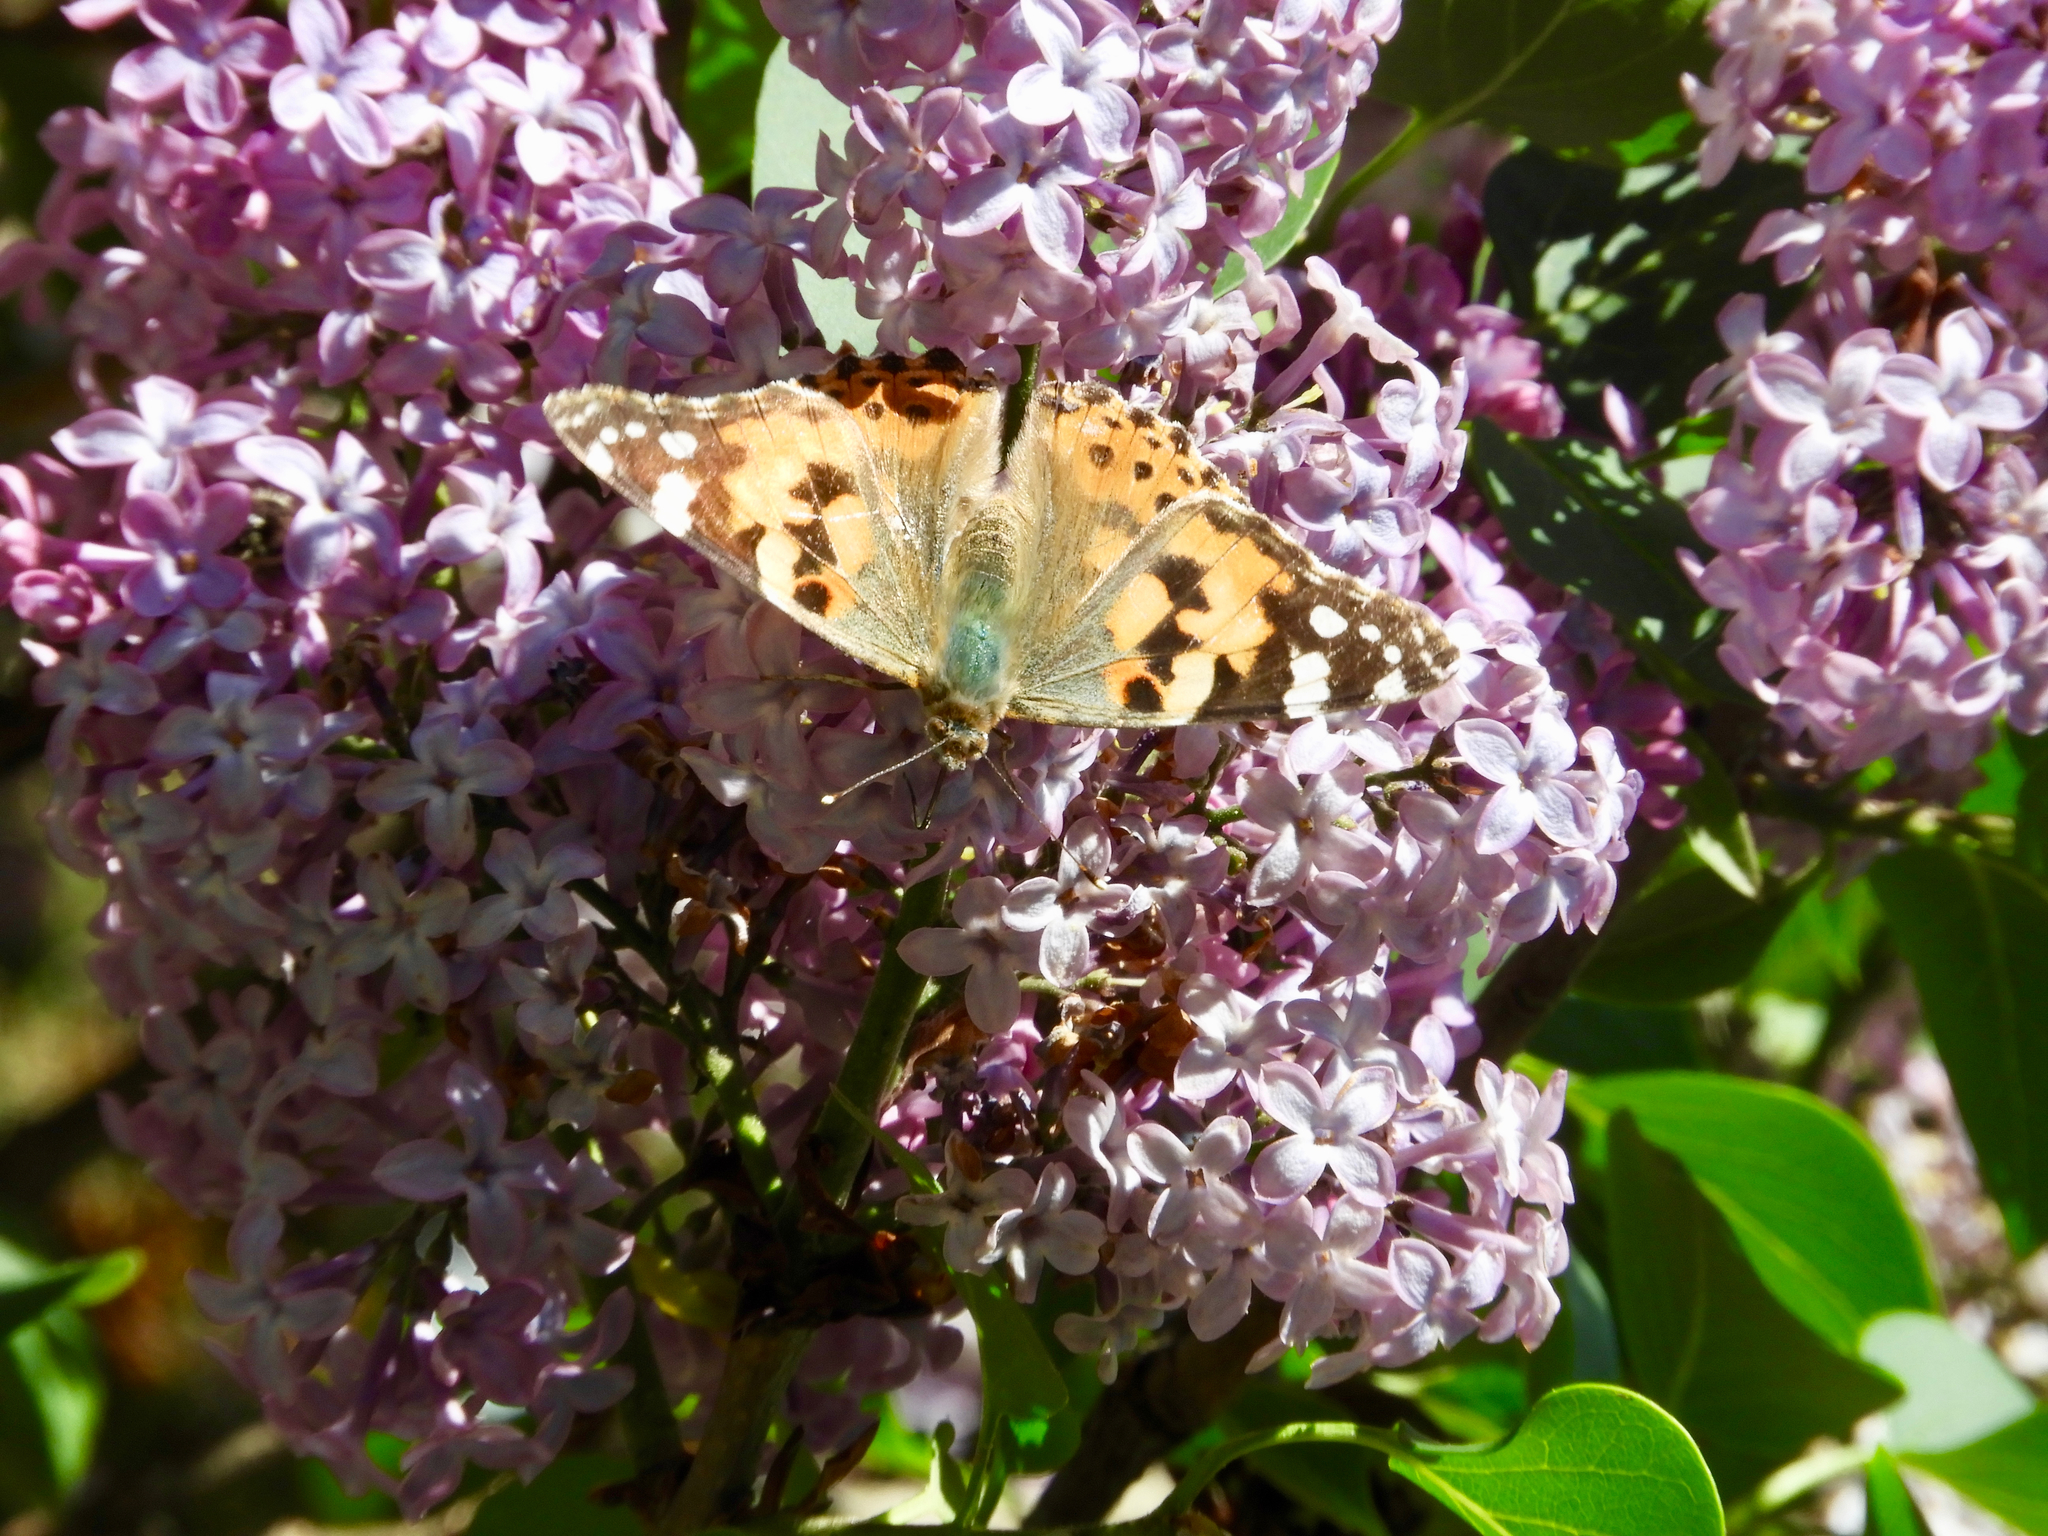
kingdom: Animalia
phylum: Arthropoda
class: Insecta
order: Lepidoptera
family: Nymphalidae
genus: Vanessa
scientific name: Vanessa cardui
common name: Painted lady
